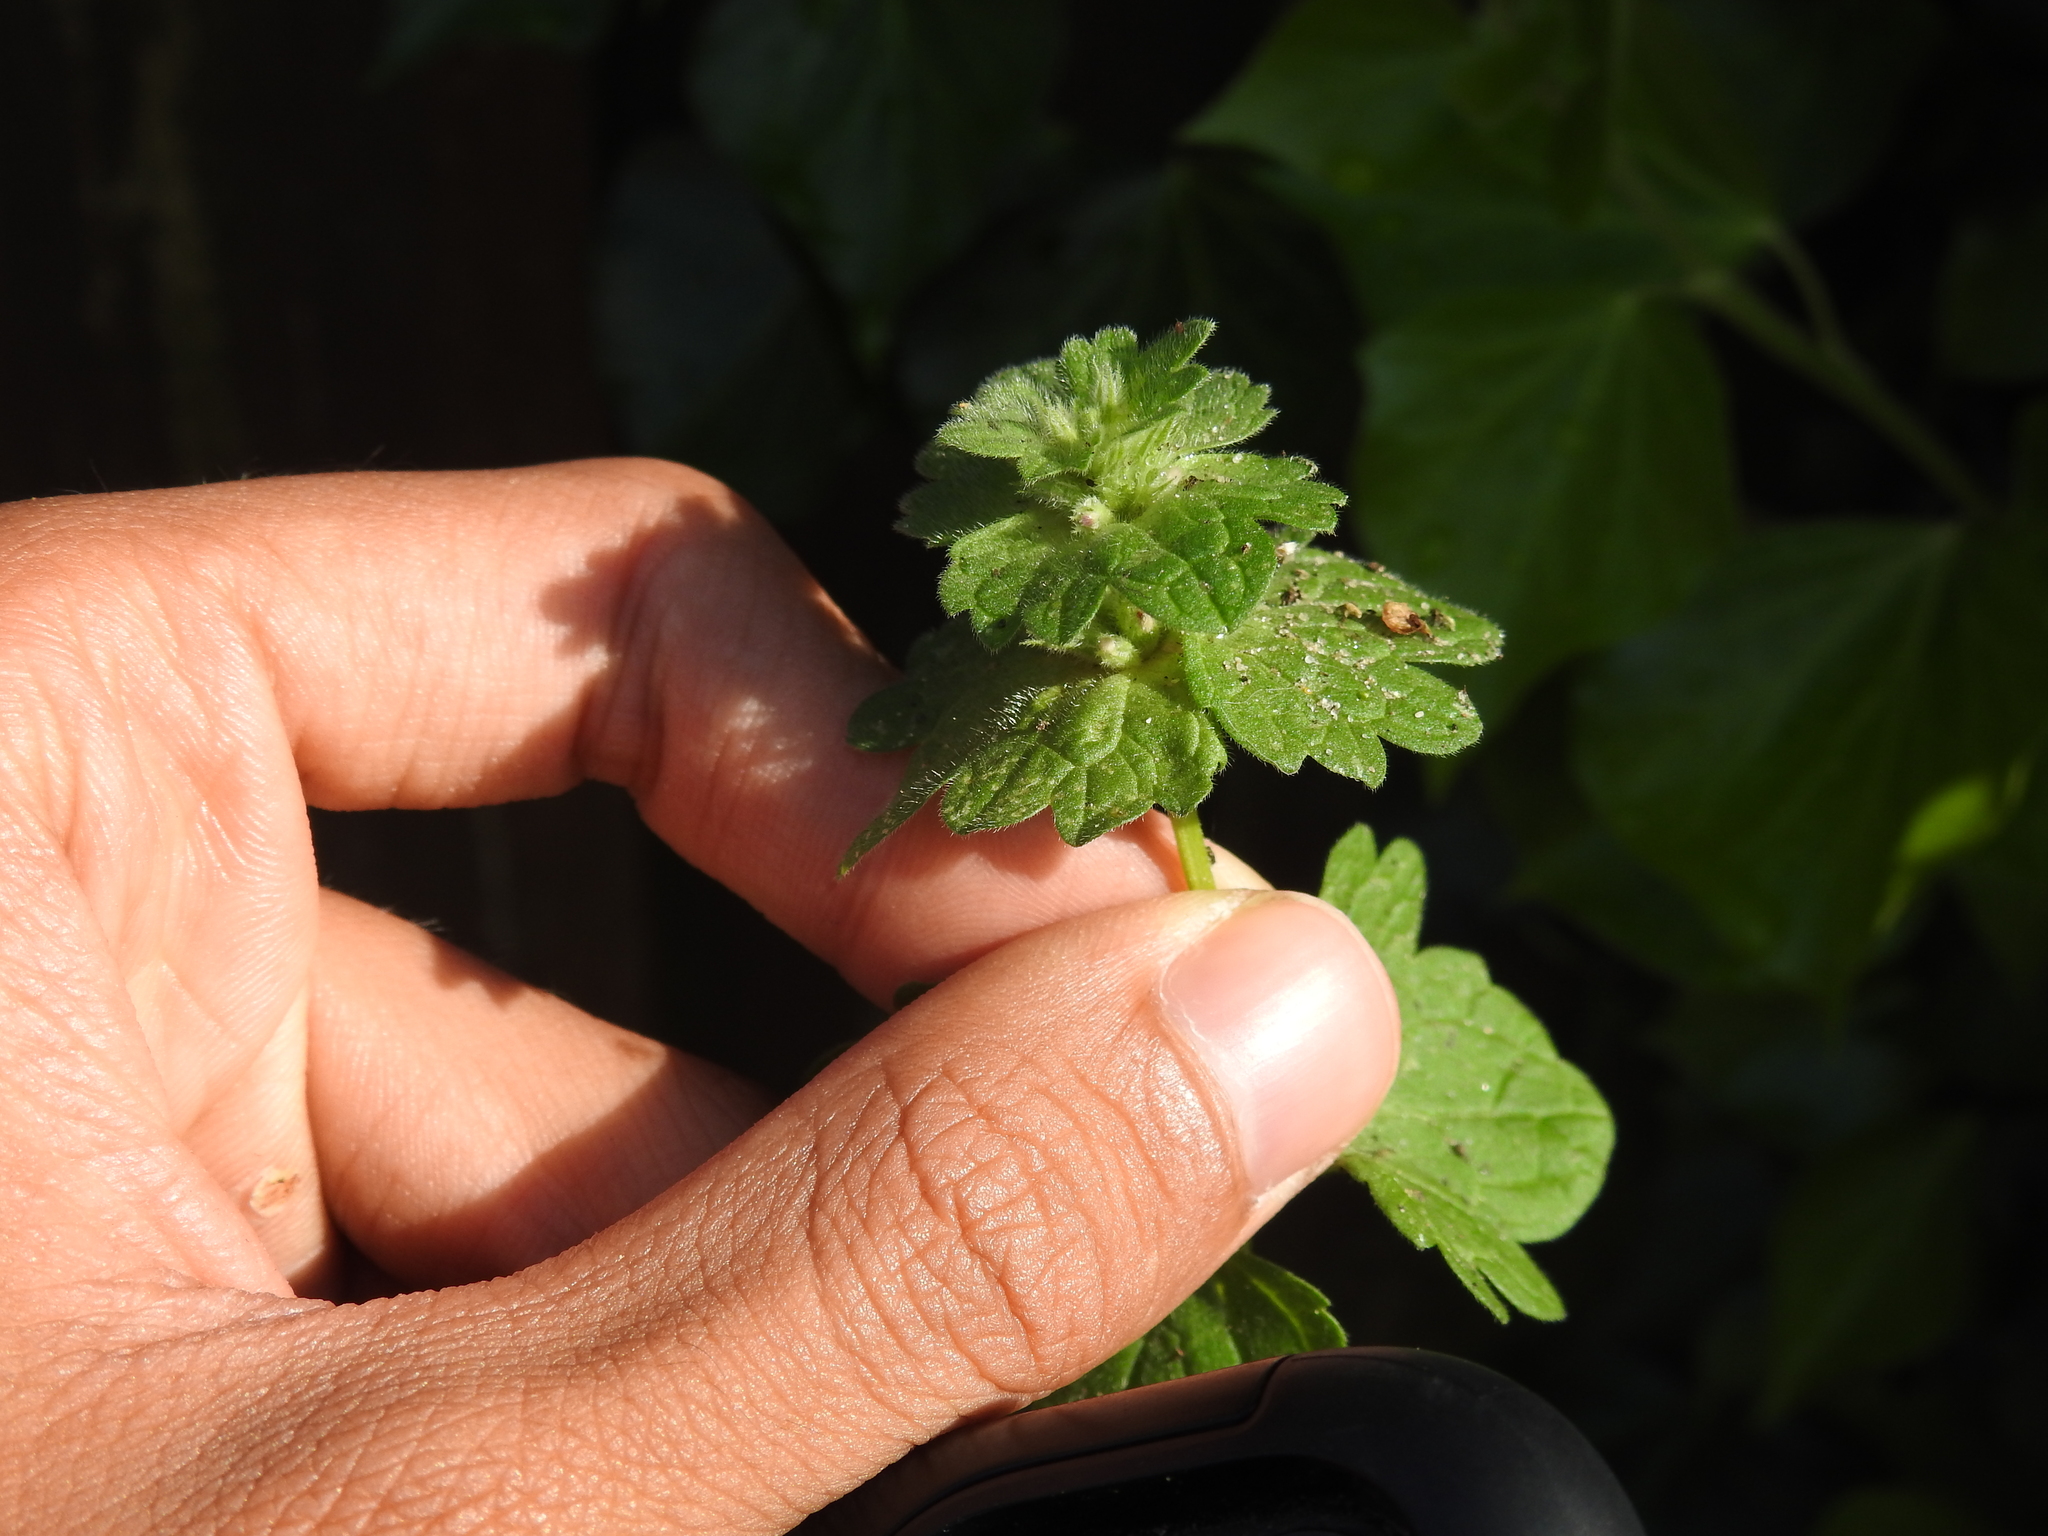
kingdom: Plantae
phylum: Tracheophyta
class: Magnoliopsida
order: Lamiales
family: Lamiaceae
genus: Lamium
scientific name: Lamium amplexicaule
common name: Henbit dead-nettle
